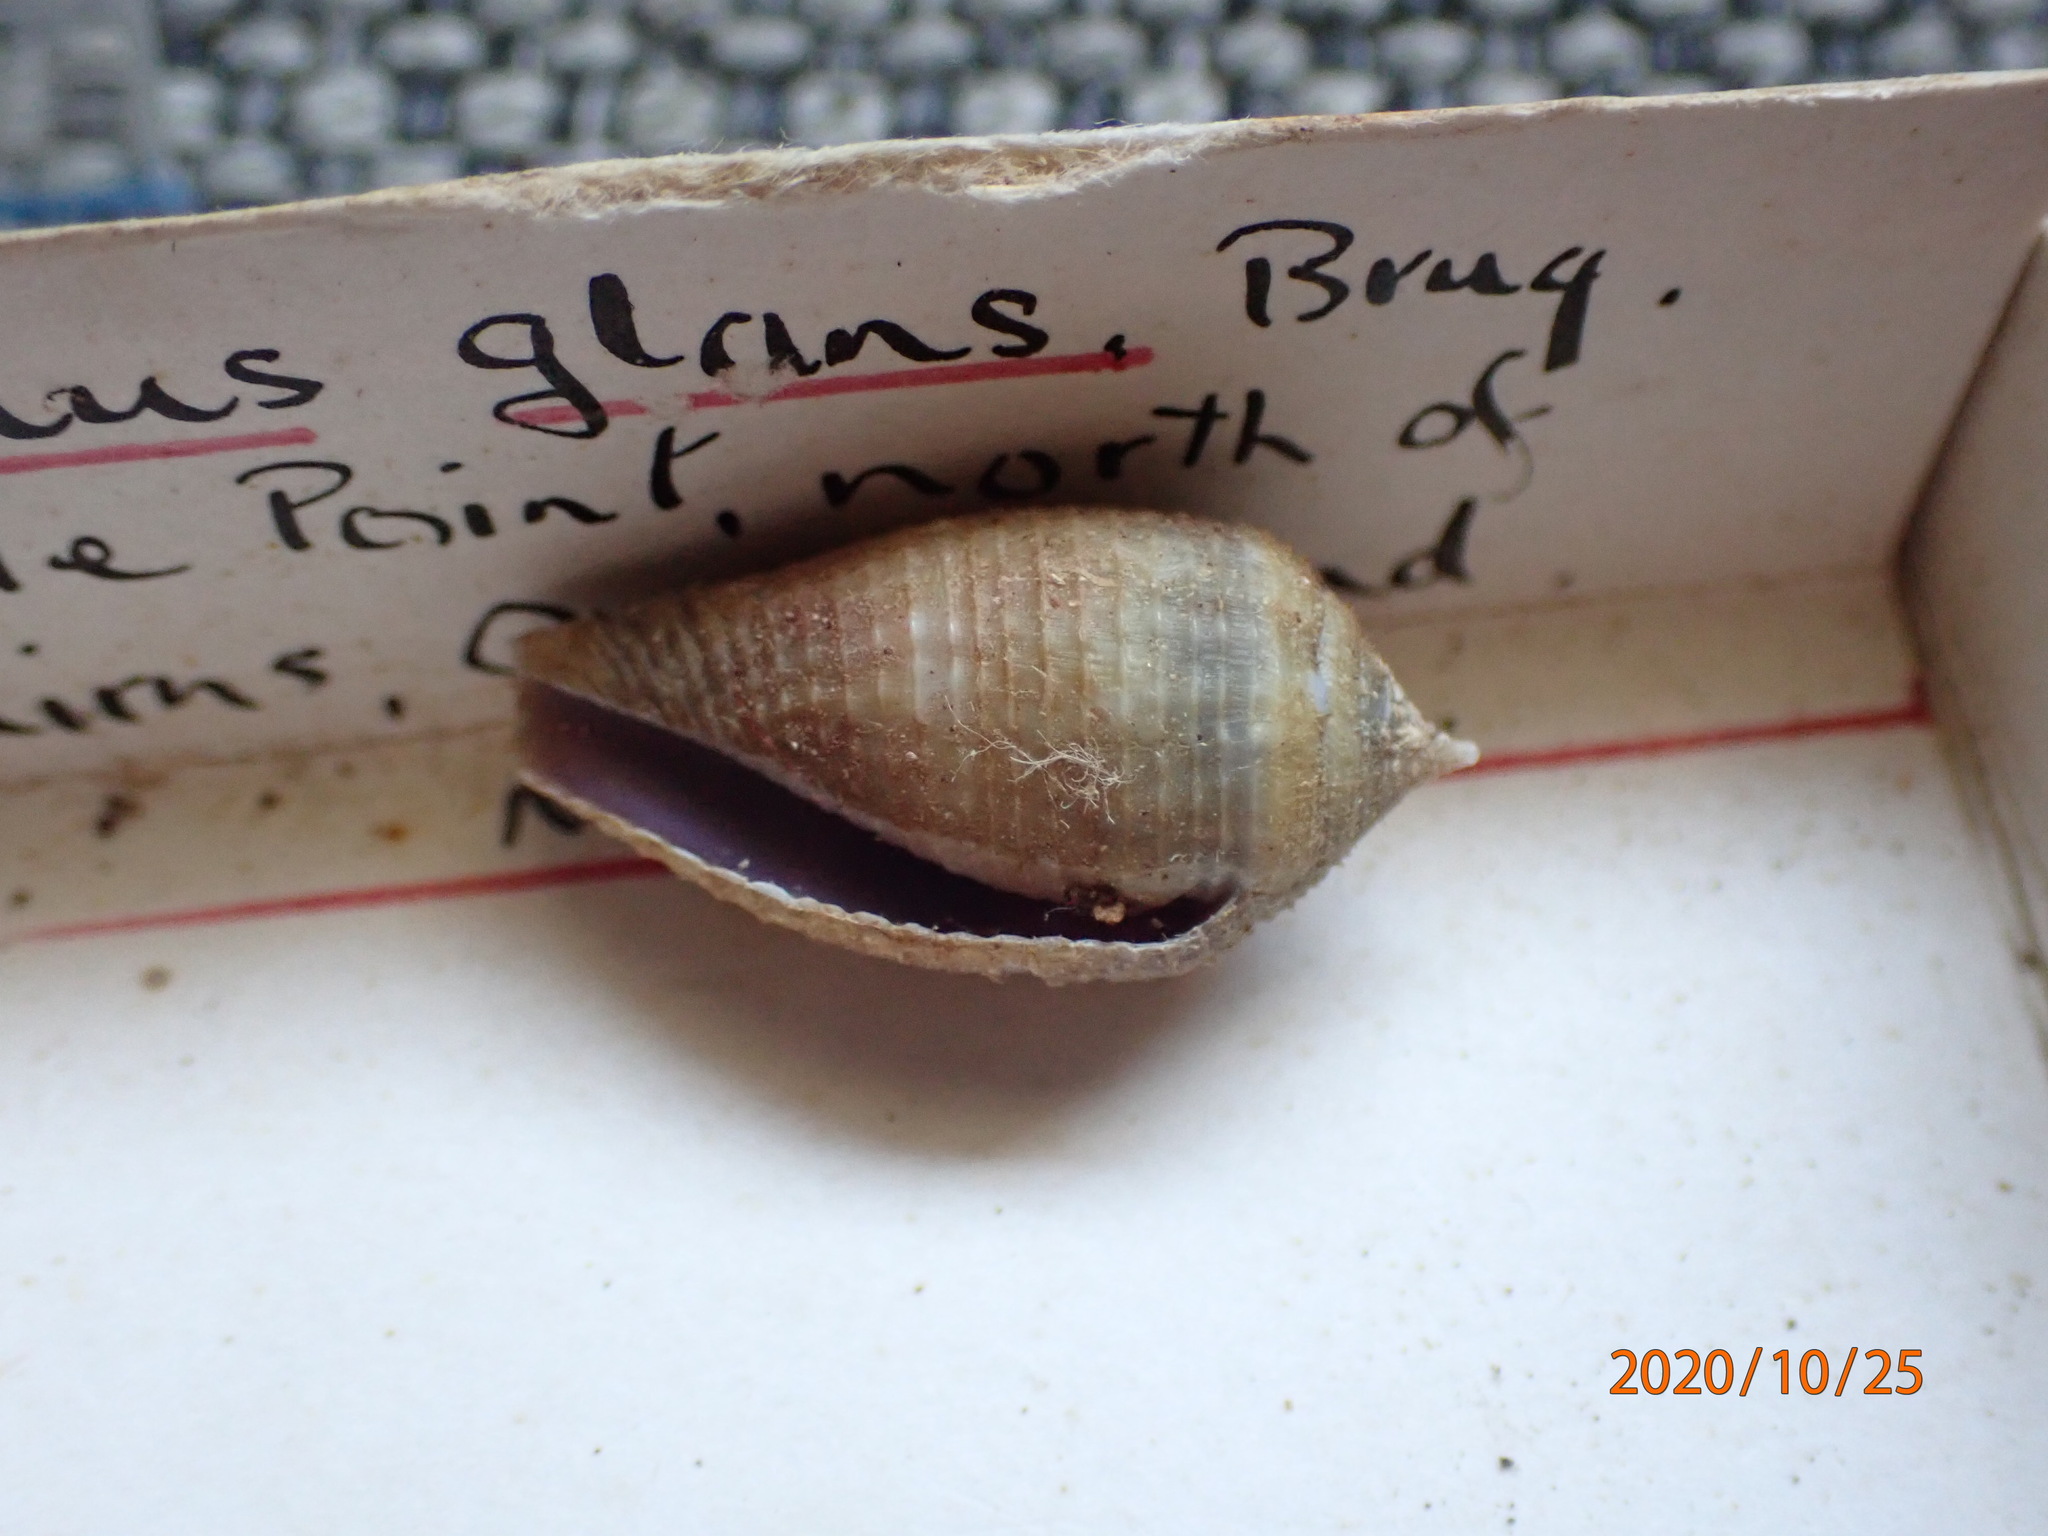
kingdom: Animalia
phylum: Mollusca
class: Gastropoda
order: Neogastropoda
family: Conidae
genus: Conus
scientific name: Conus glans
